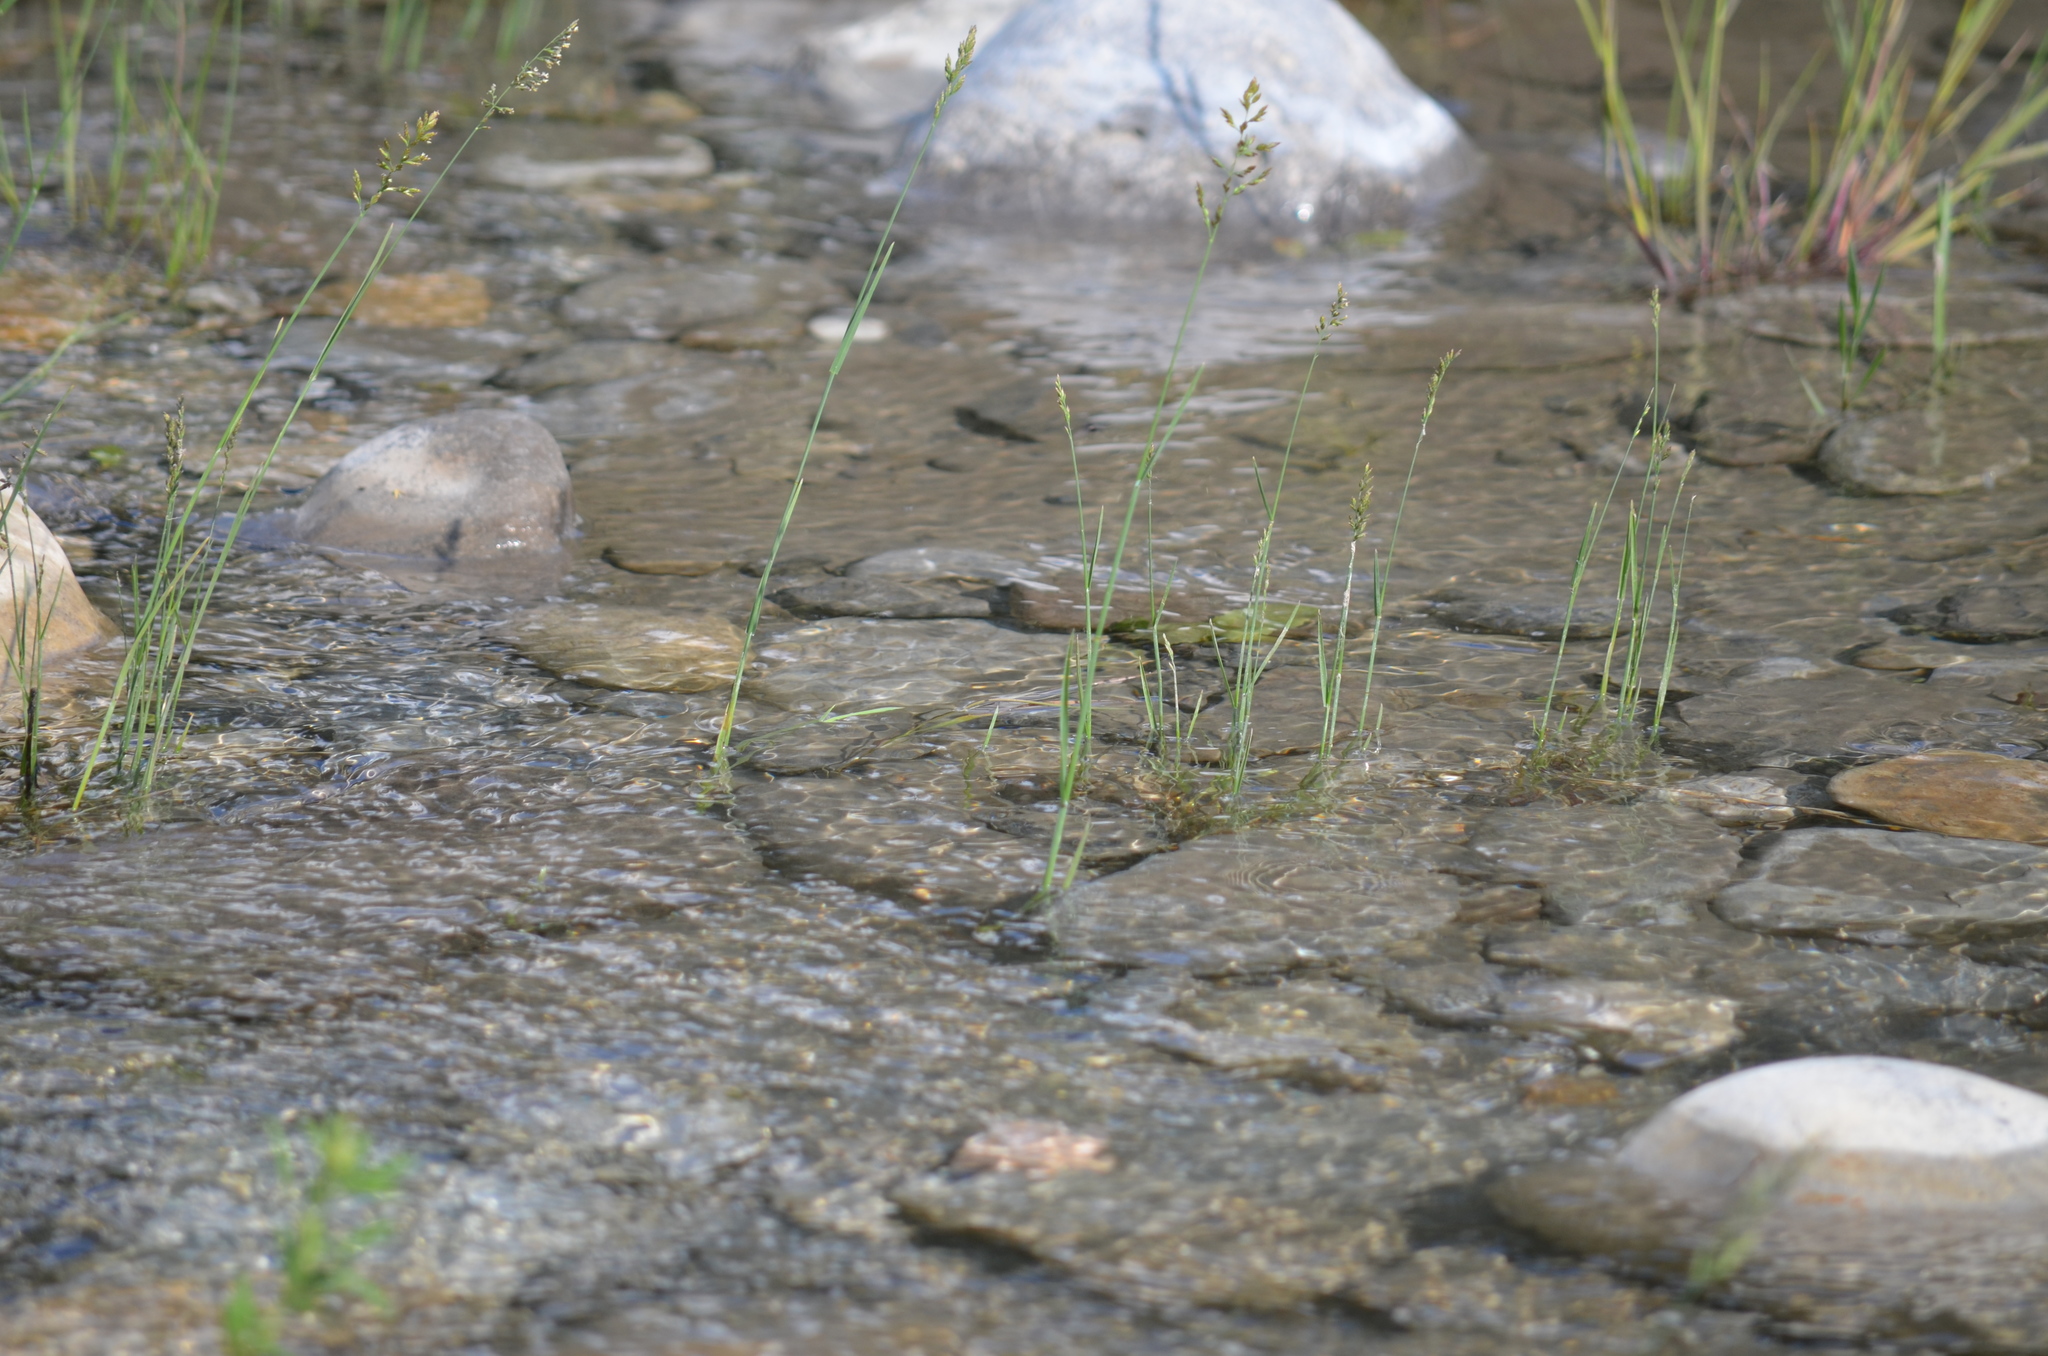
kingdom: Plantae
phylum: Tracheophyta
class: Liliopsida
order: Poales
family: Poaceae
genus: Poa
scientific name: Poa compressa
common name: Canada bluegrass
